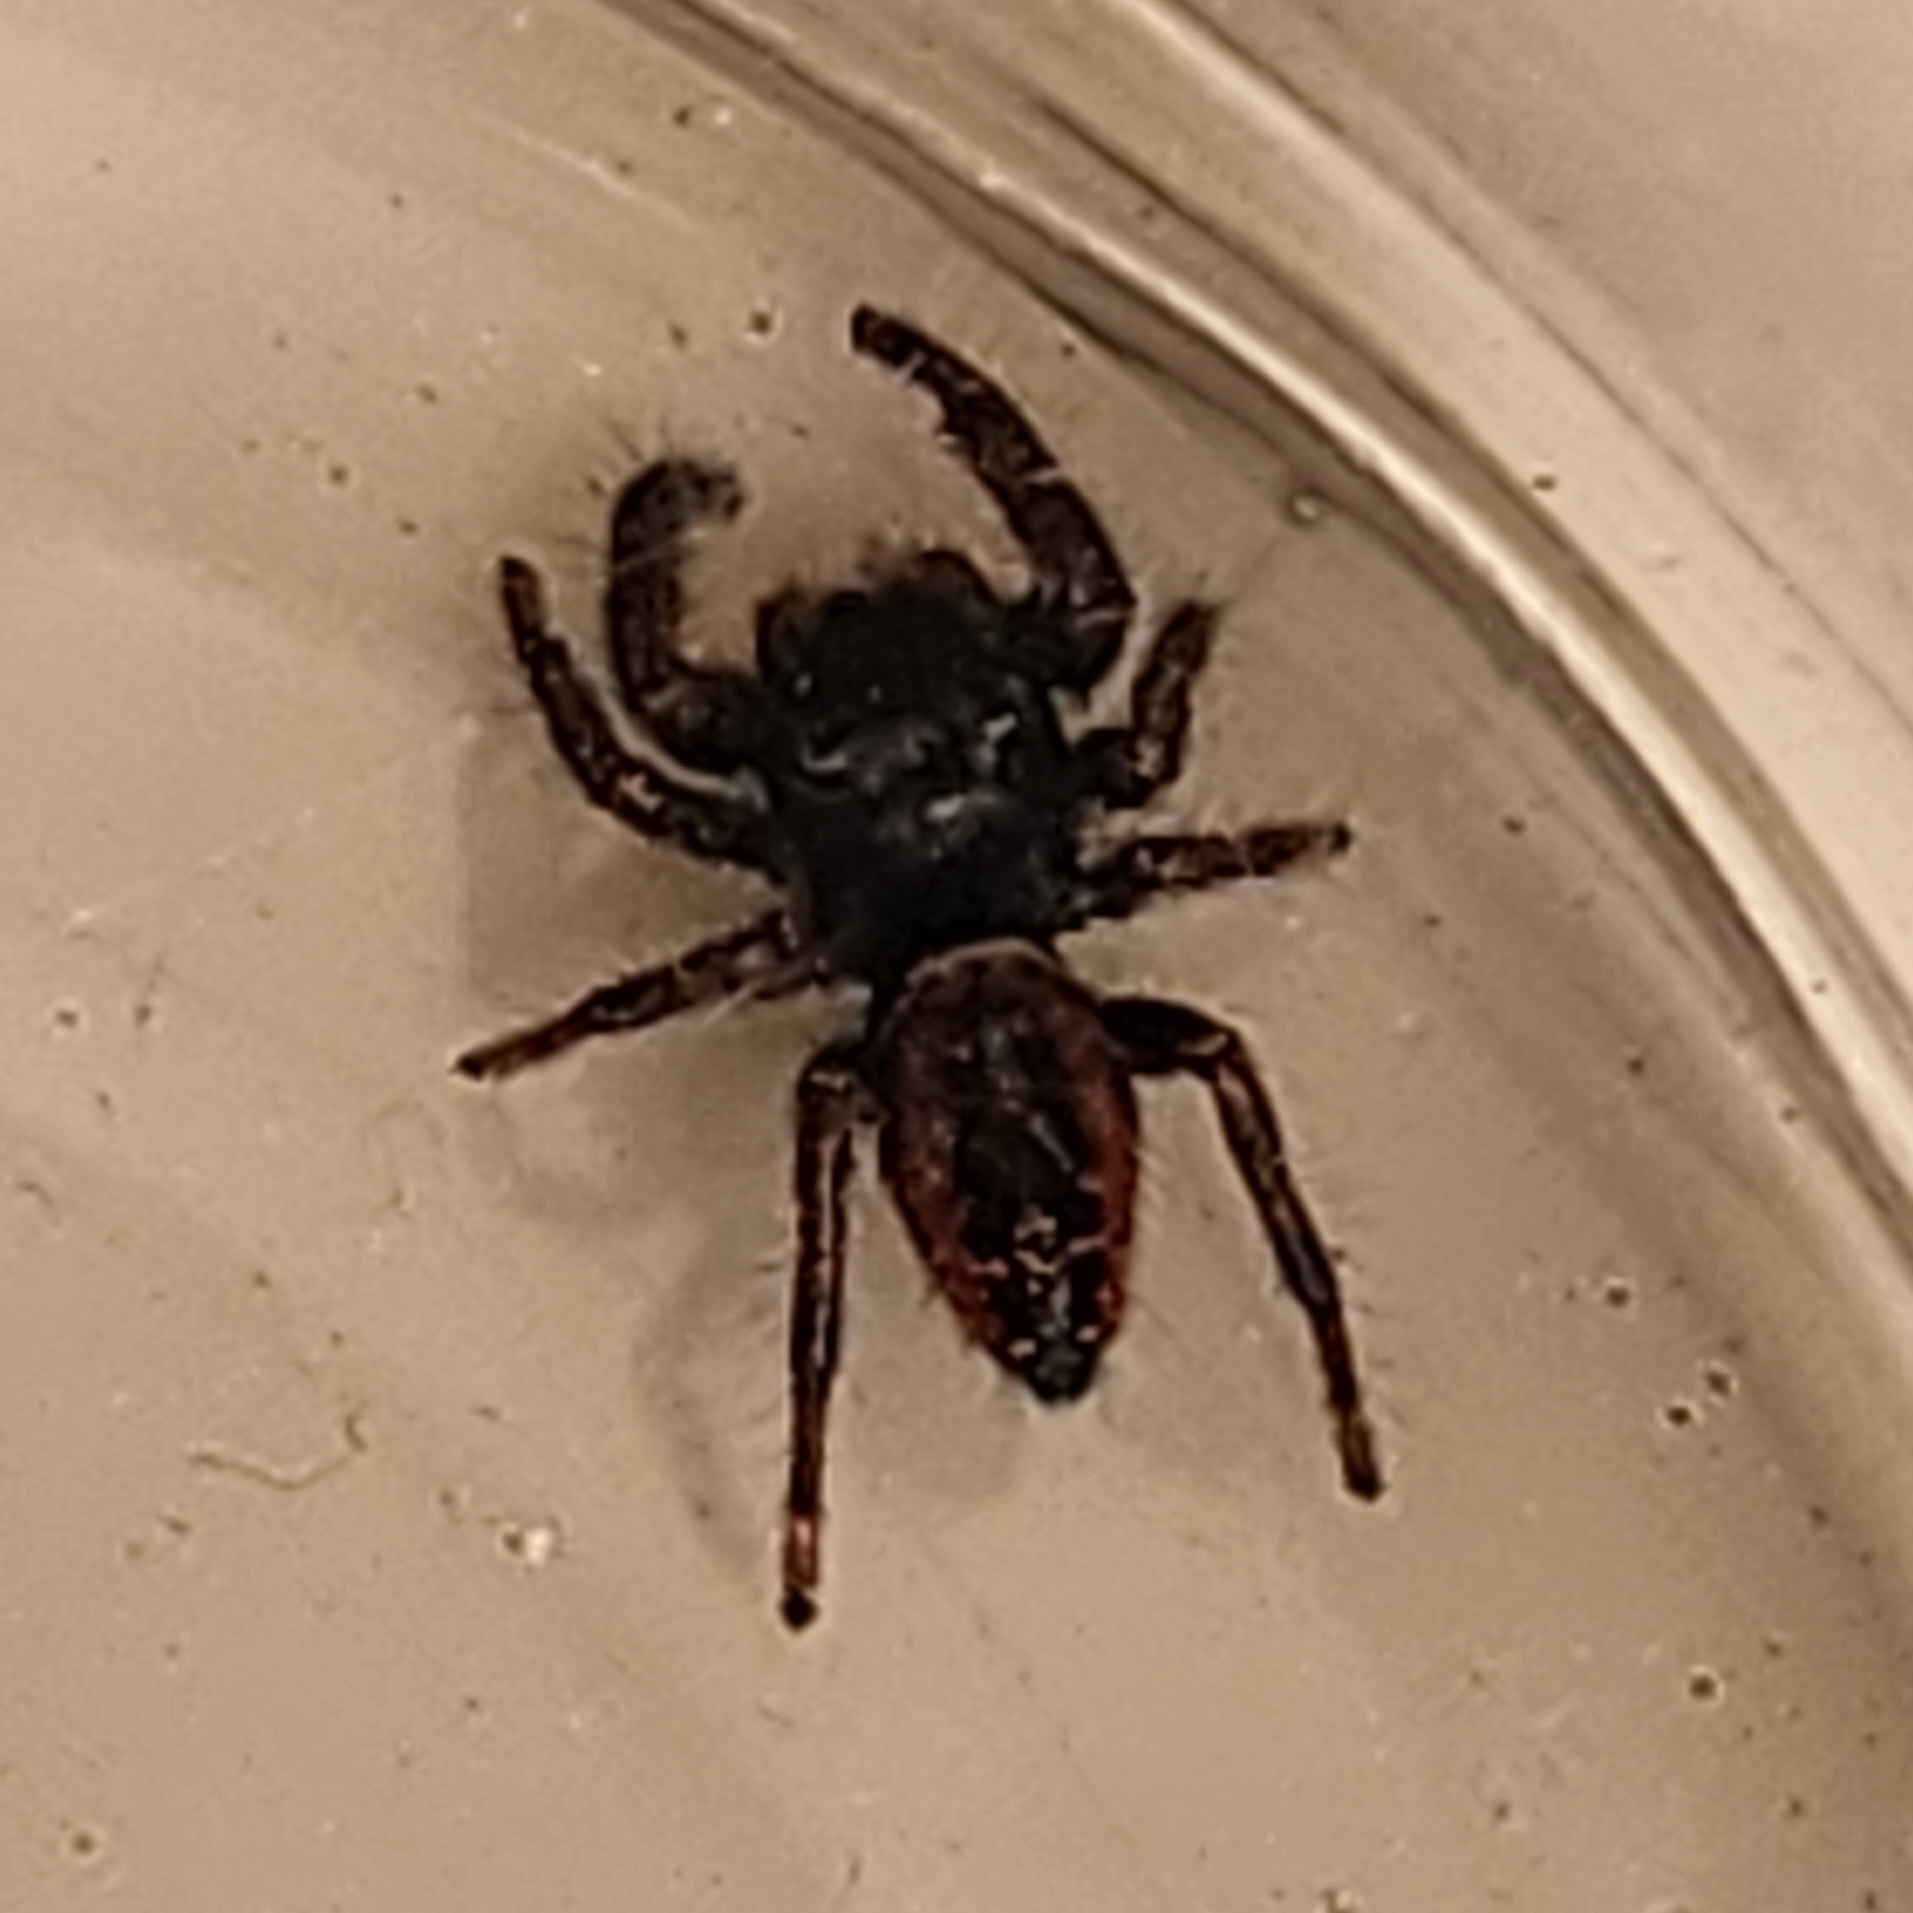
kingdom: Animalia
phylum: Arthropoda
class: Arachnida
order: Araneae
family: Salticidae
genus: Phidippus
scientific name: Phidippus johnsoni
